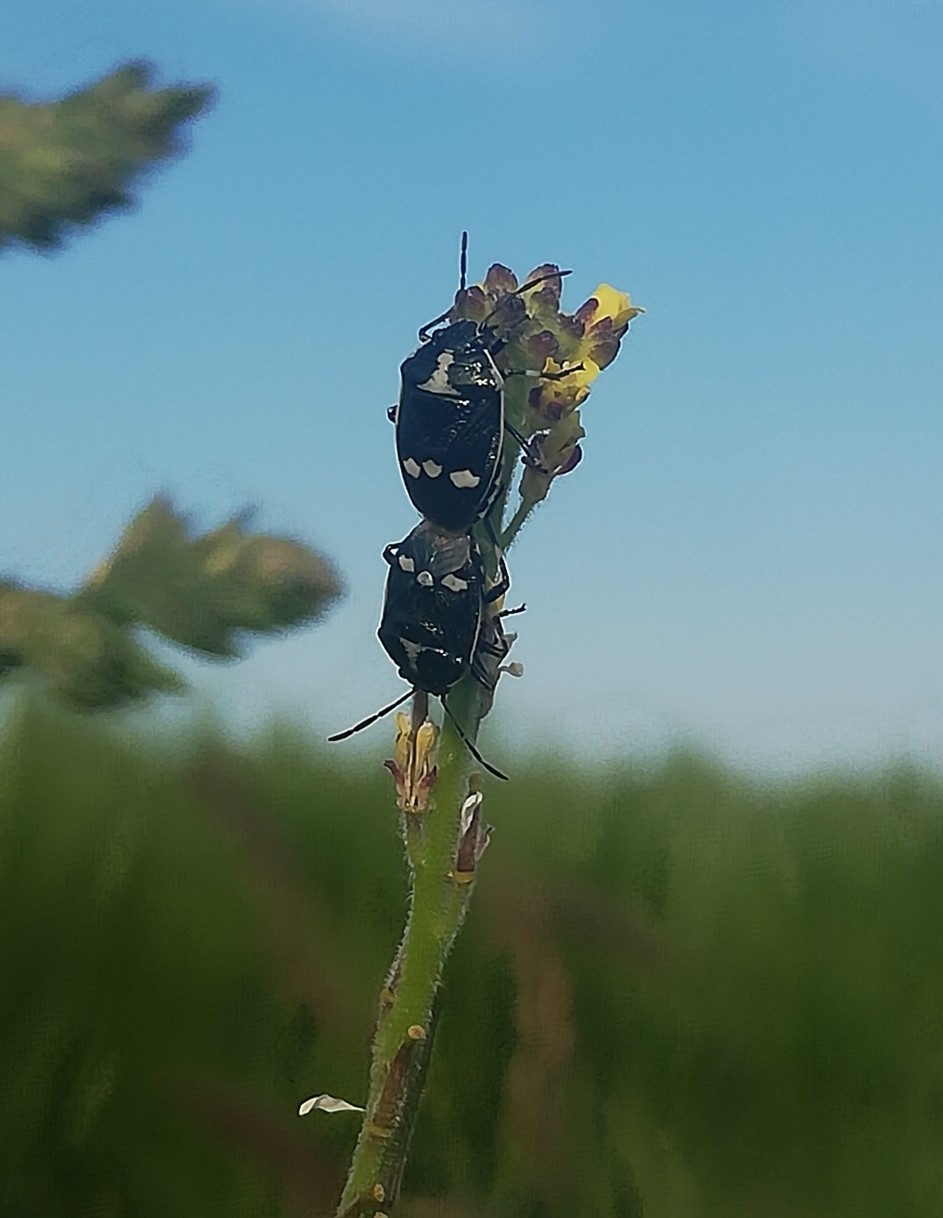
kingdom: Animalia
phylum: Arthropoda
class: Insecta
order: Hemiptera
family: Pentatomidae
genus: Eurydema
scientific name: Eurydema oleracea
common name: Cabbage bug
